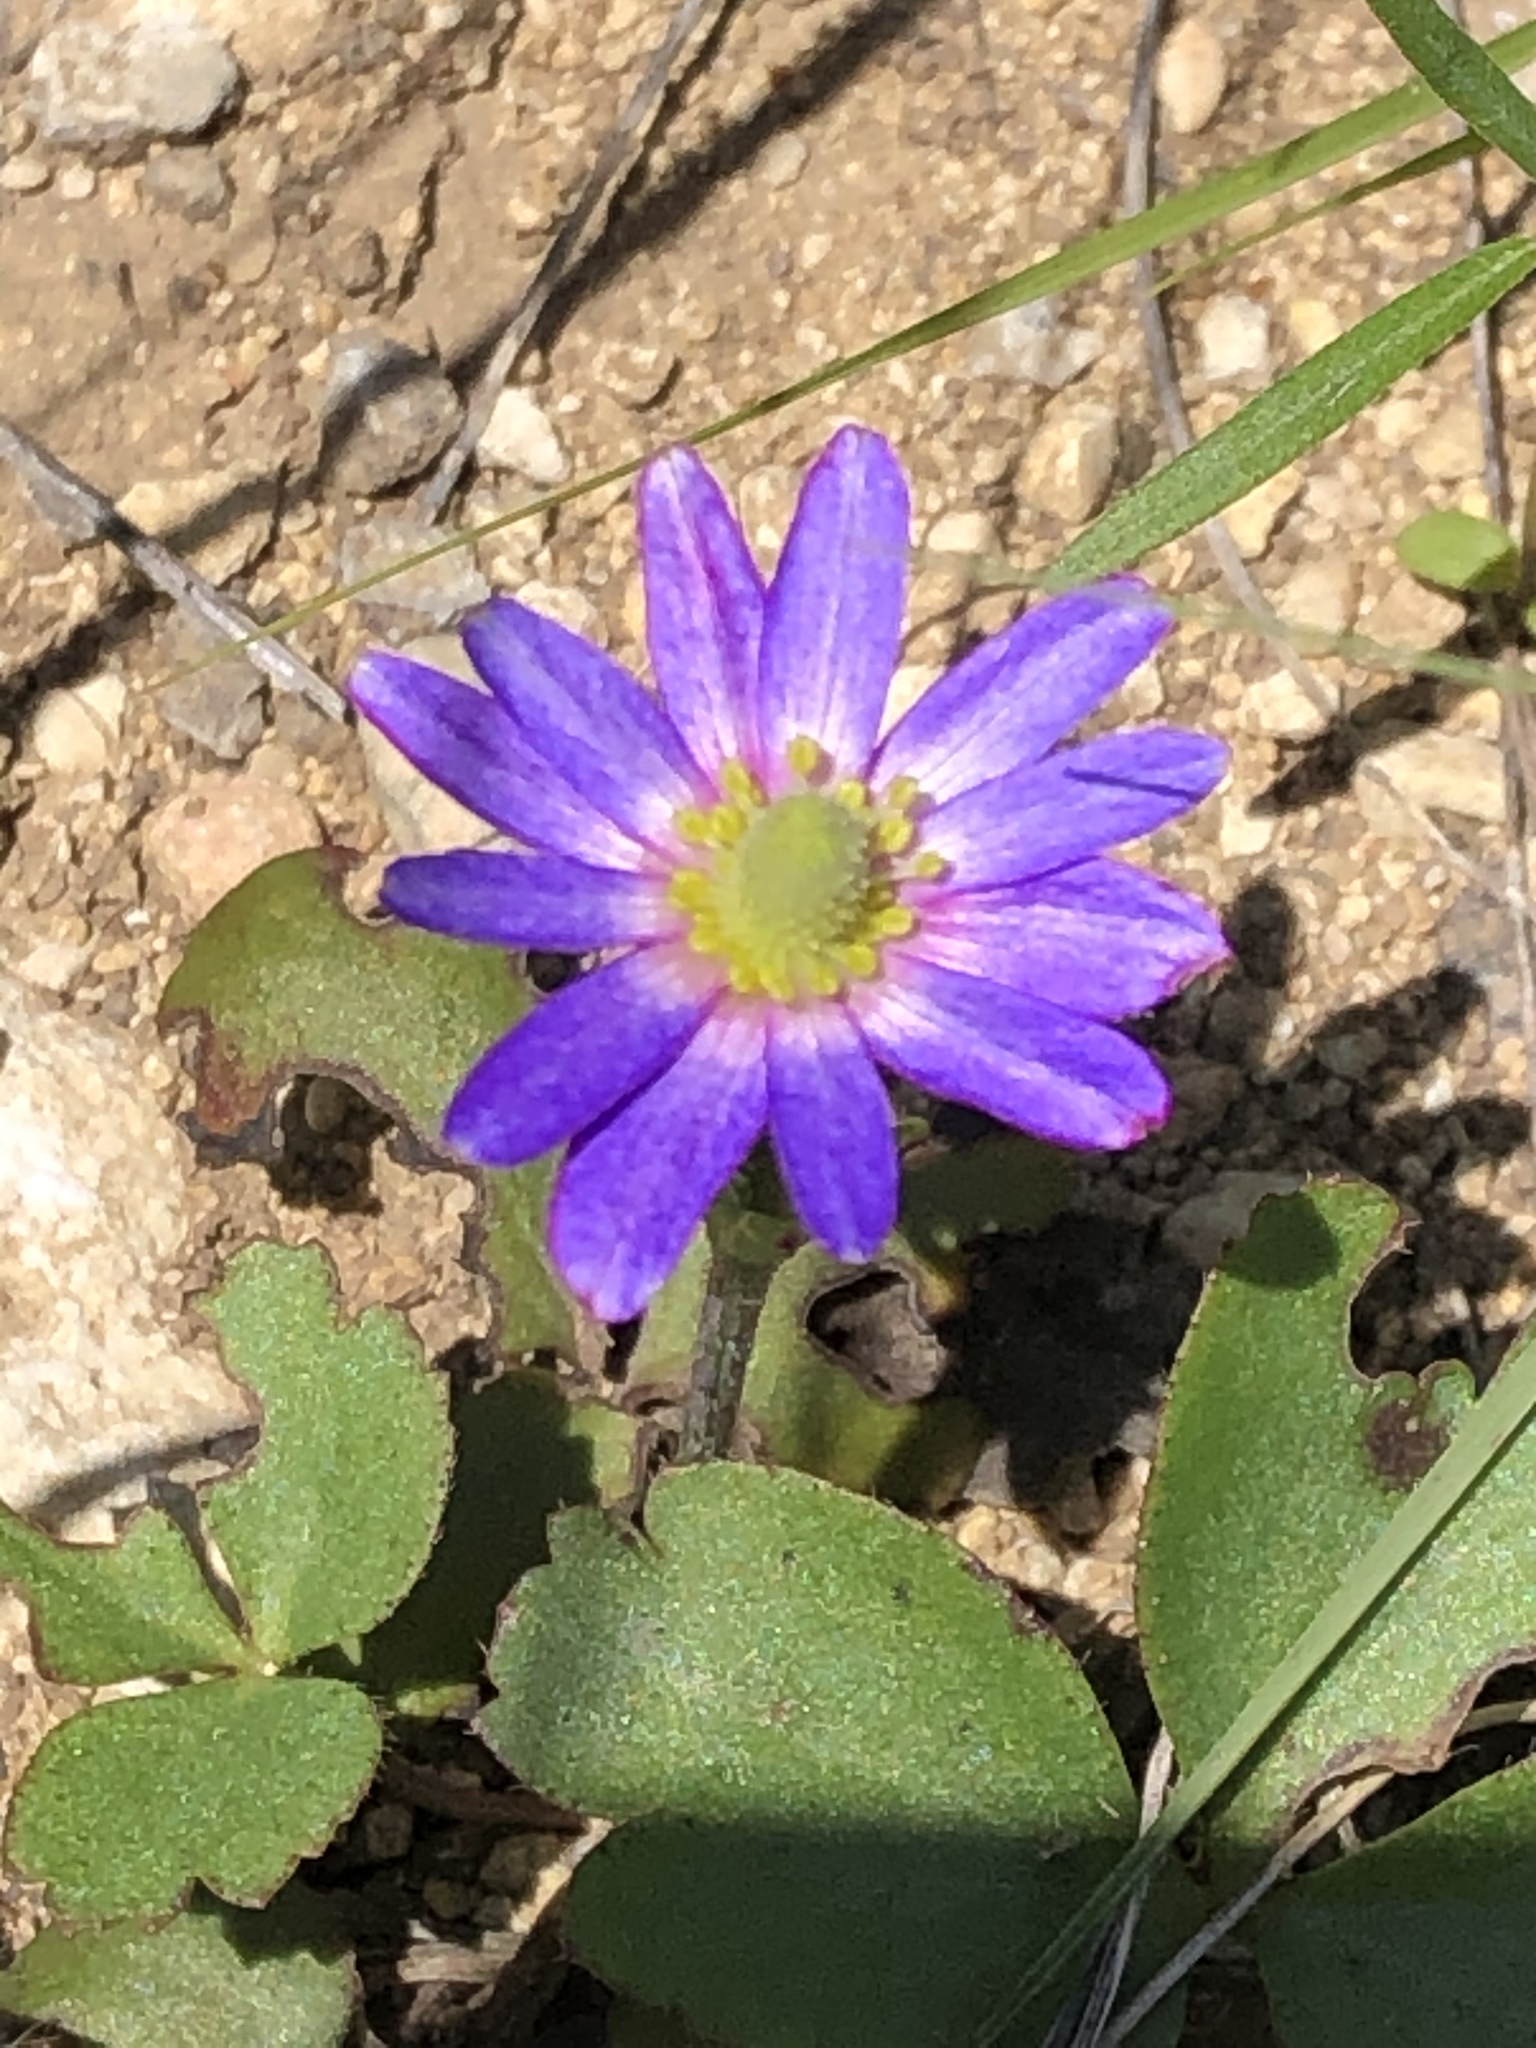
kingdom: Plantae
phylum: Tracheophyta
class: Magnoliopsida
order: Ranunculales
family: Ranunculaceae
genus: Anemone
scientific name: Anemone berlandieri
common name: Ten-petal anemone
